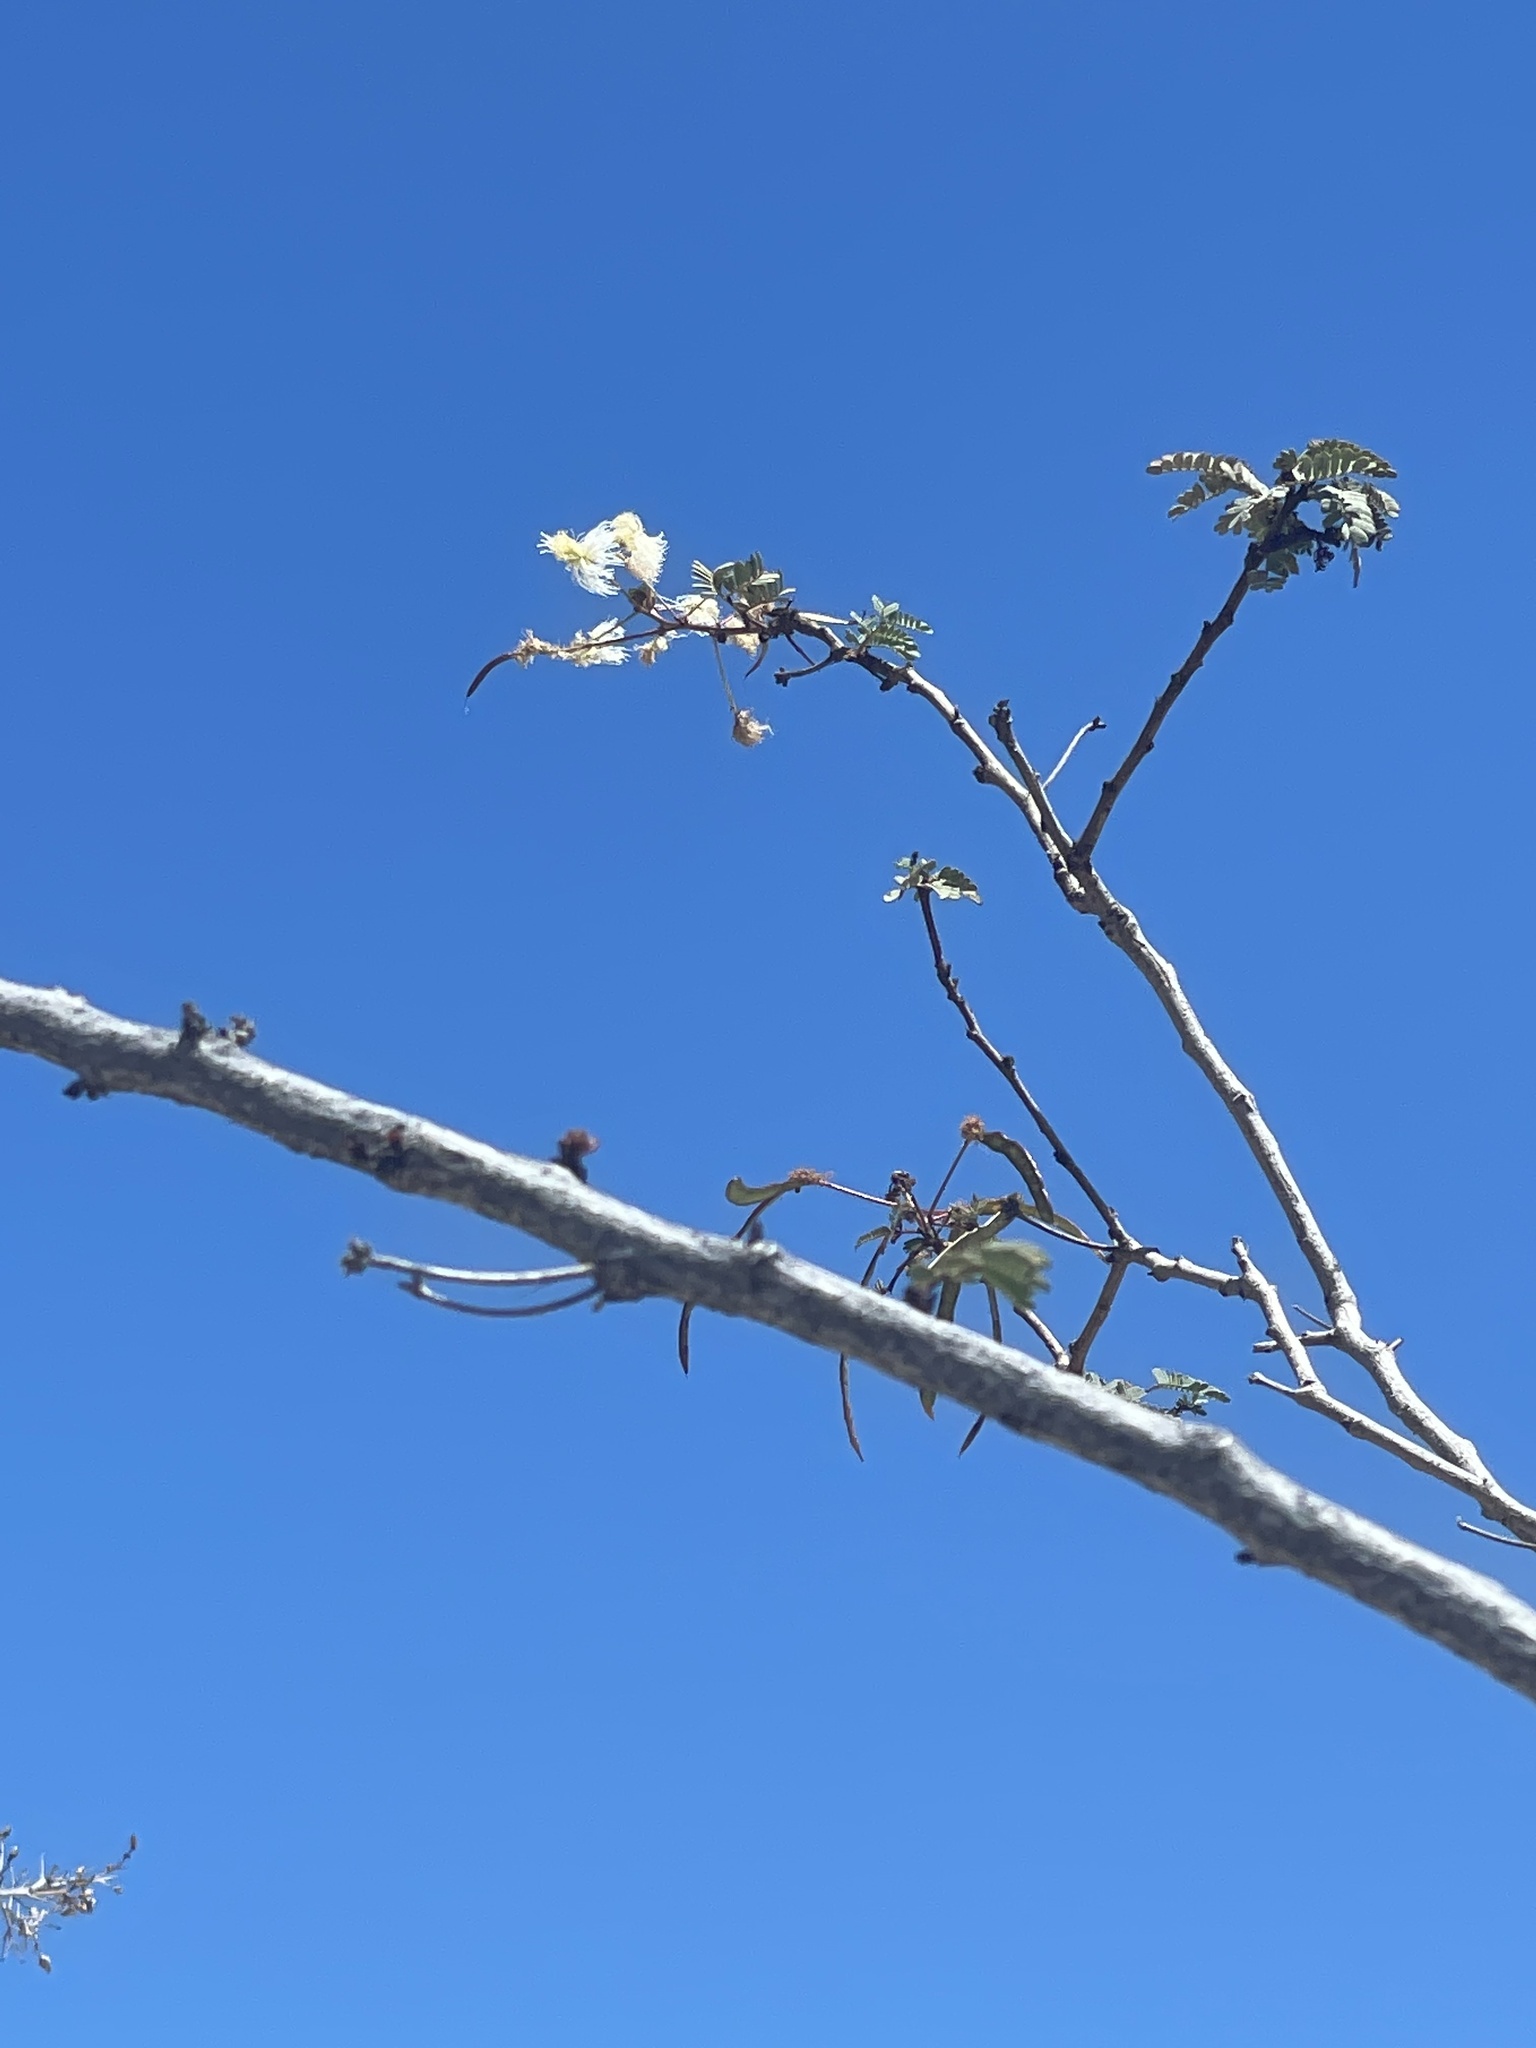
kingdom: Plantae
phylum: Tracheophyta
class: Magnoliopsida
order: Fabales
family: Fabaceae
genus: Desmanthus
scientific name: Desmanthus fruticosus
